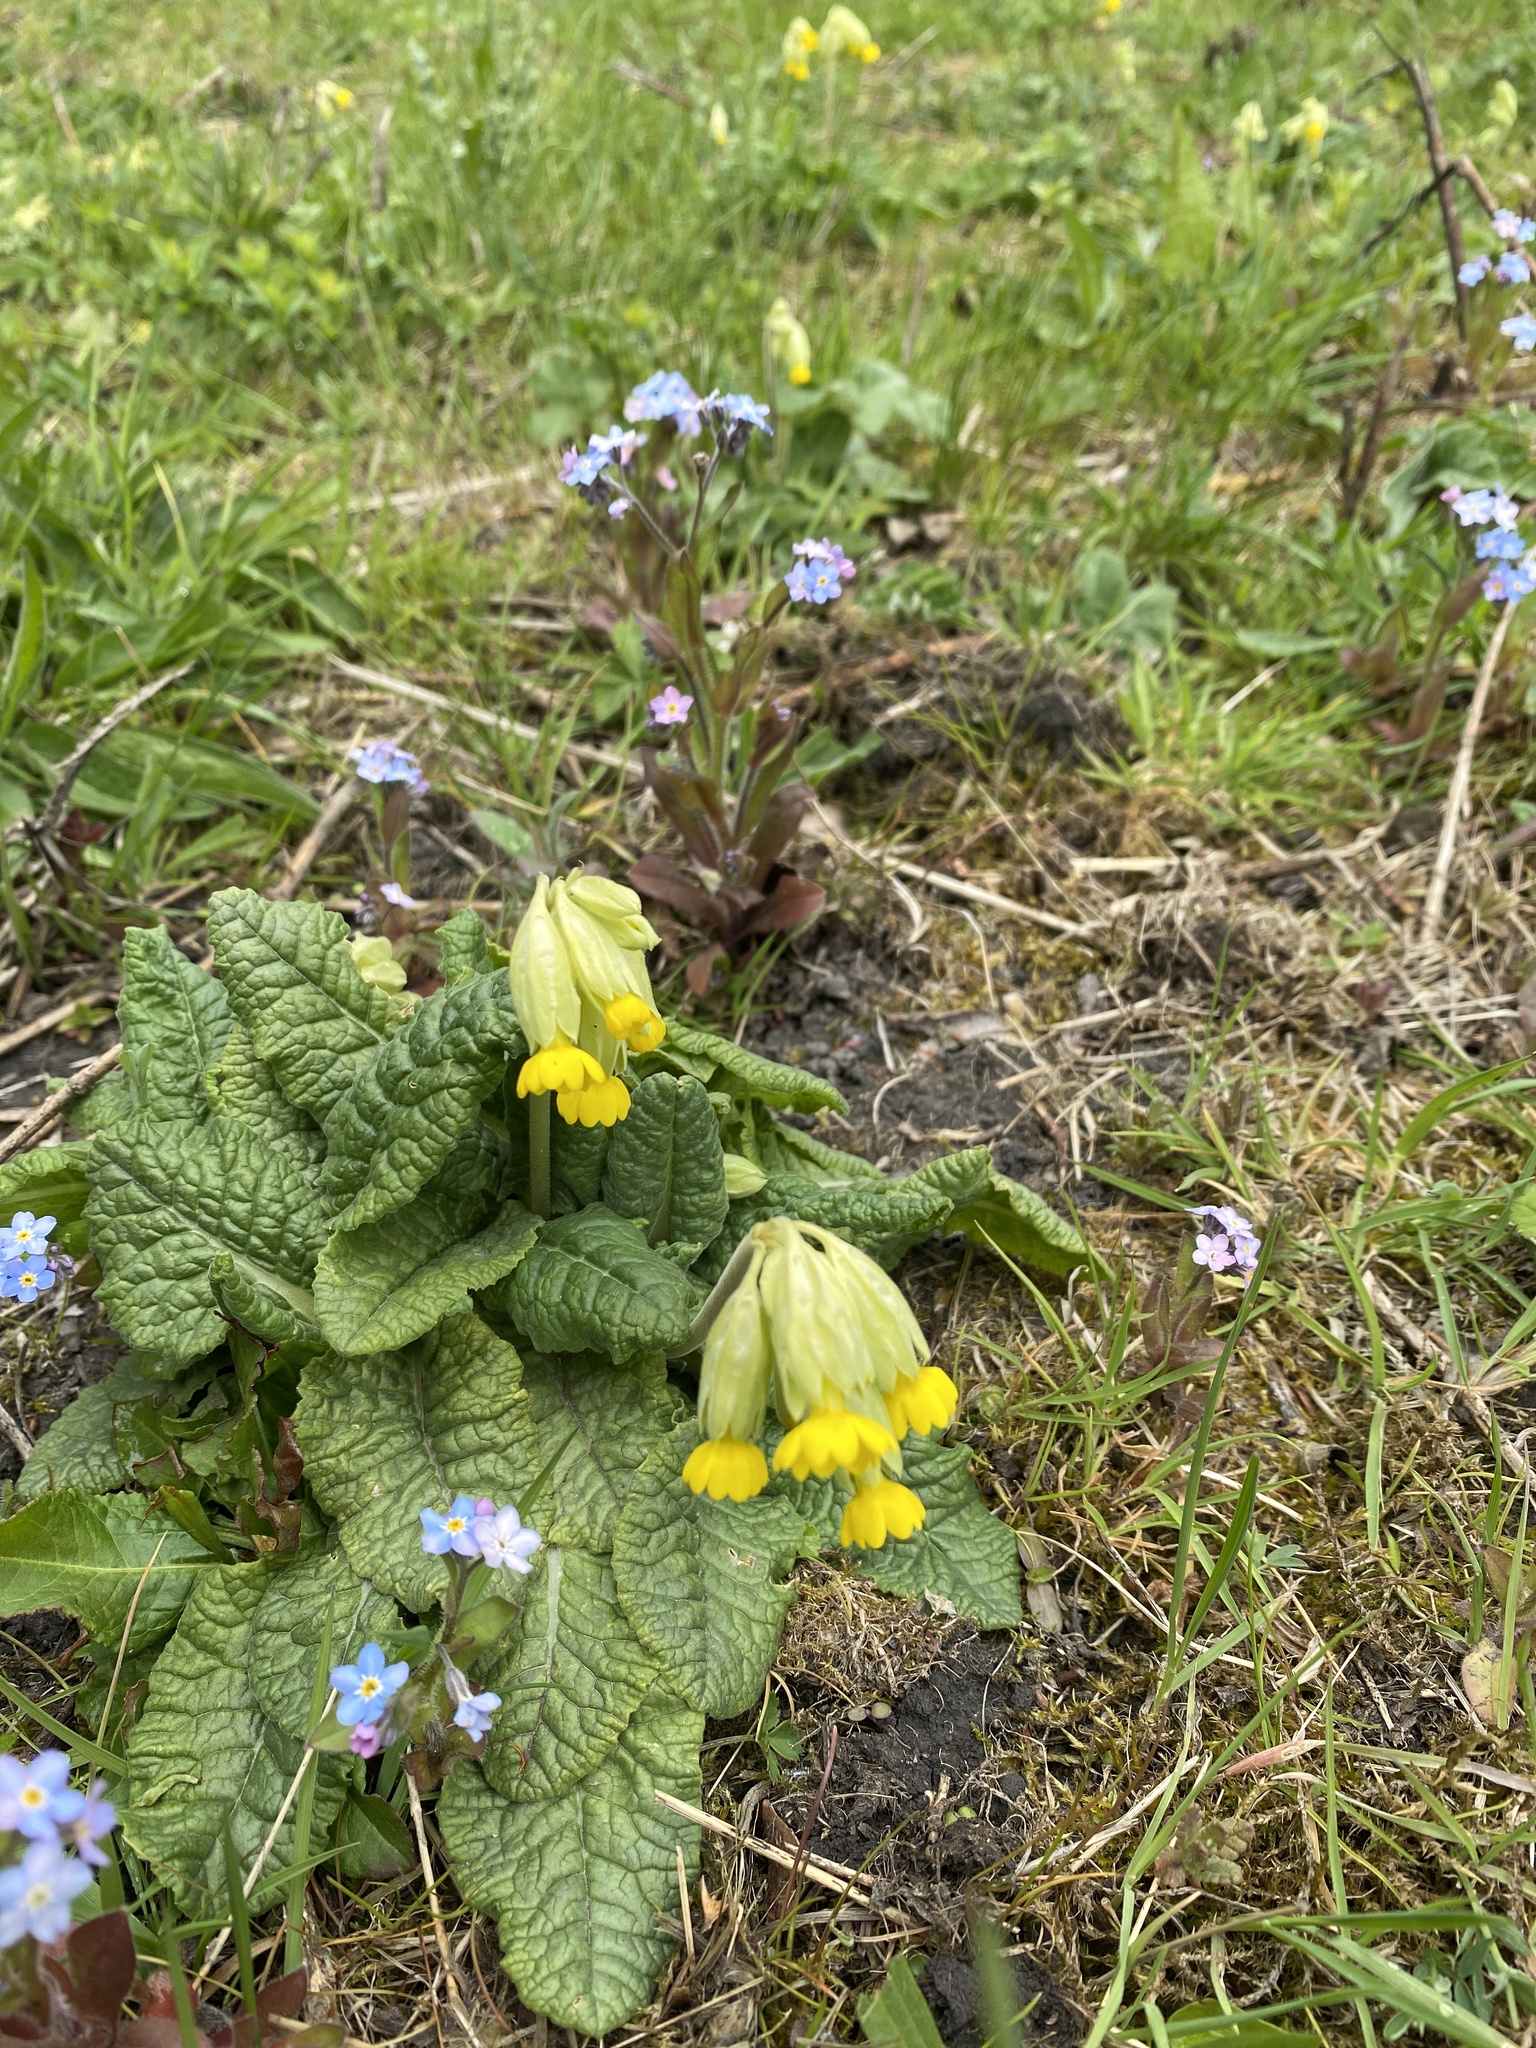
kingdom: Plantae
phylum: Tracheophyta
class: Magnoliopsida
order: Ericales
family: Primulaceae
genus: Primula
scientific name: Primula veris
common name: Cowslip
